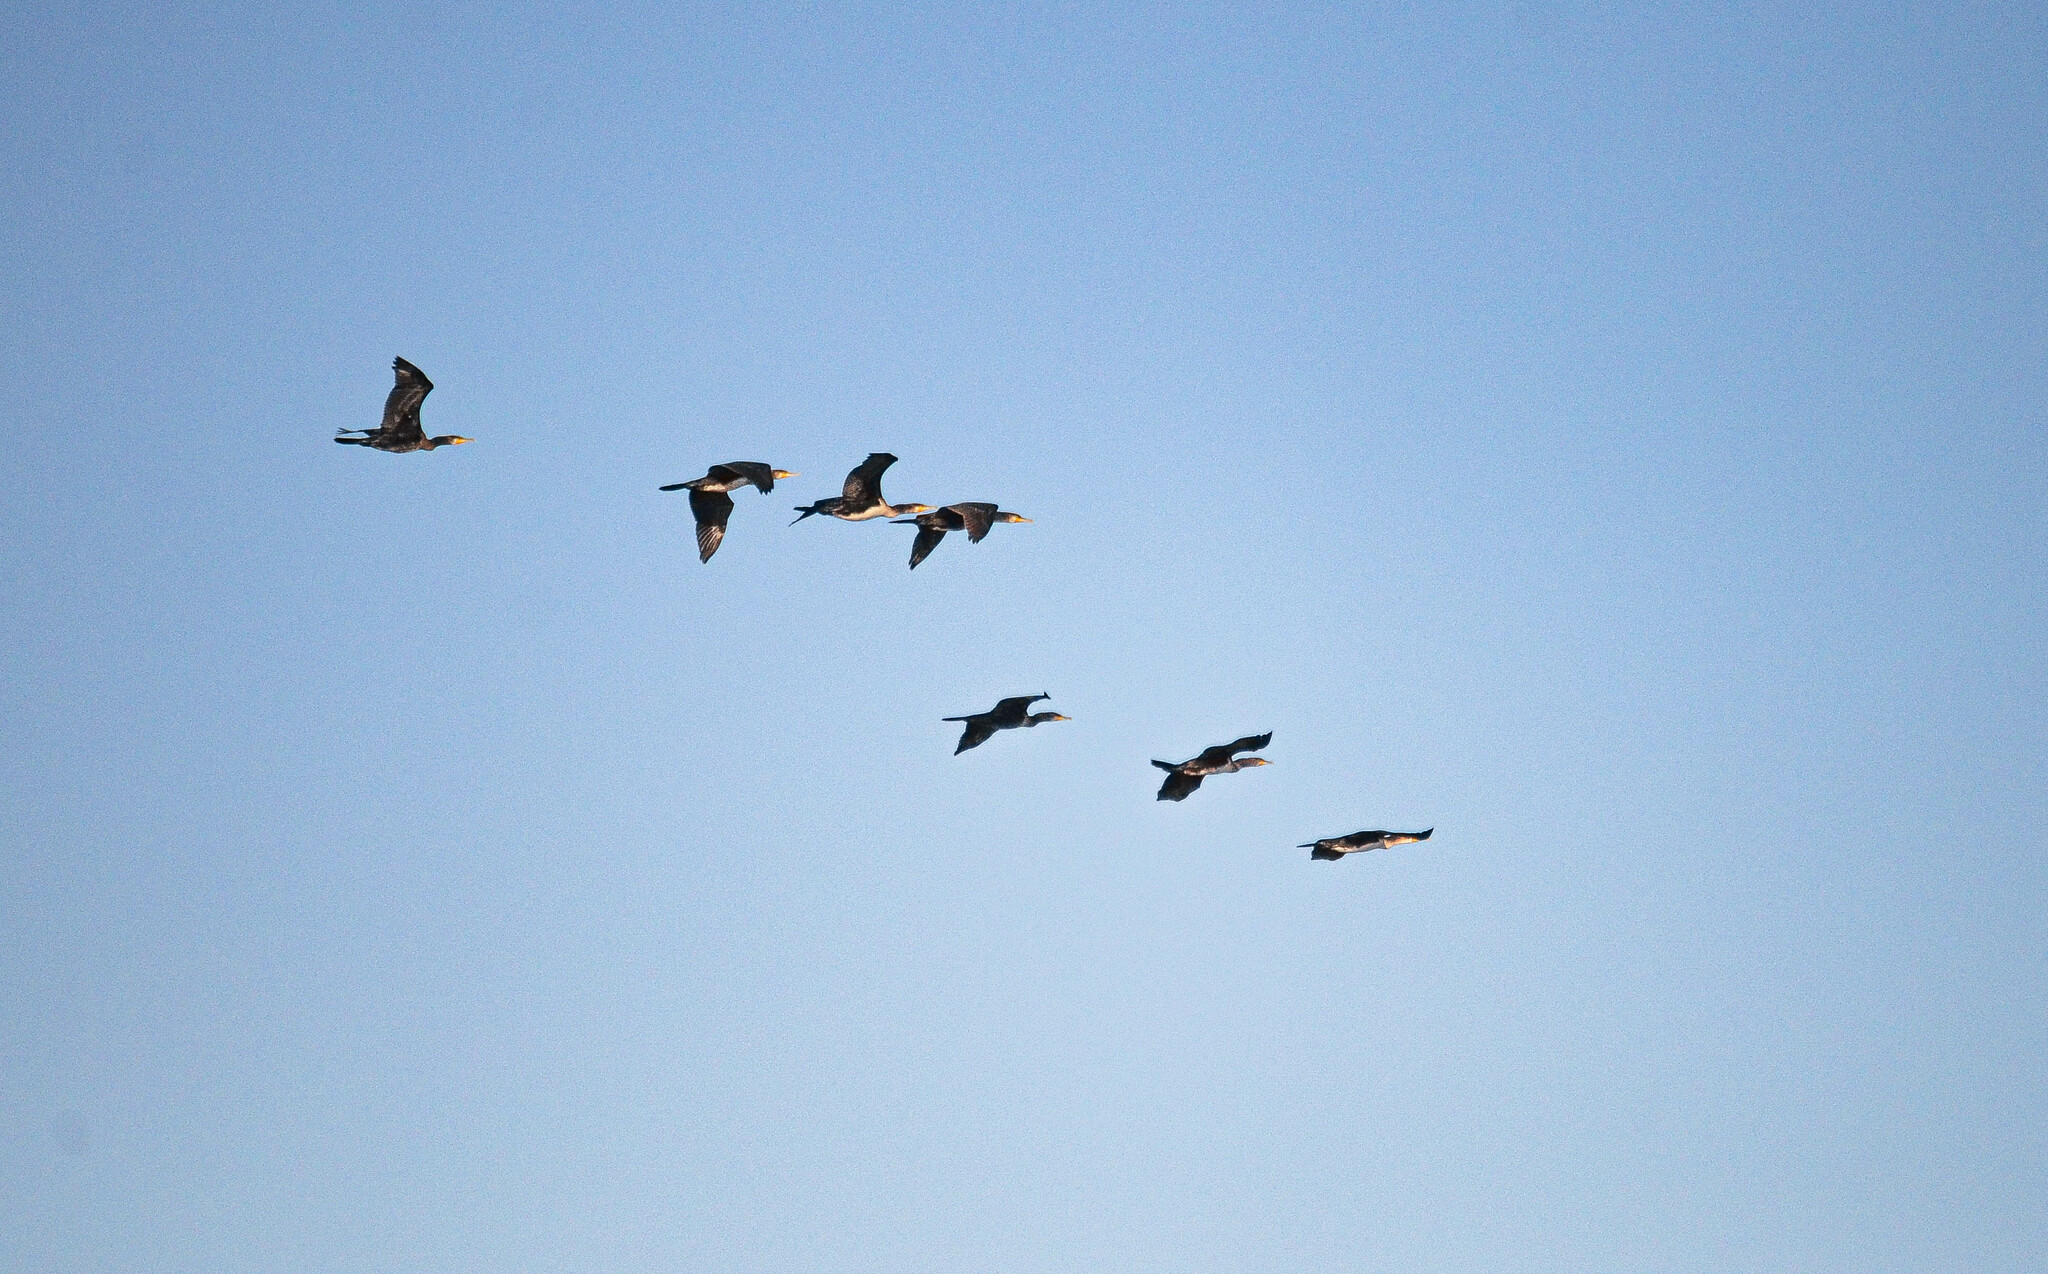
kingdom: Animalia
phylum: Chordata
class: Aves
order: Suliformes
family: Phalacrocoracidae
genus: Phalacrocorax
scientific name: Phalacrocorax carbo
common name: Great cormorant
